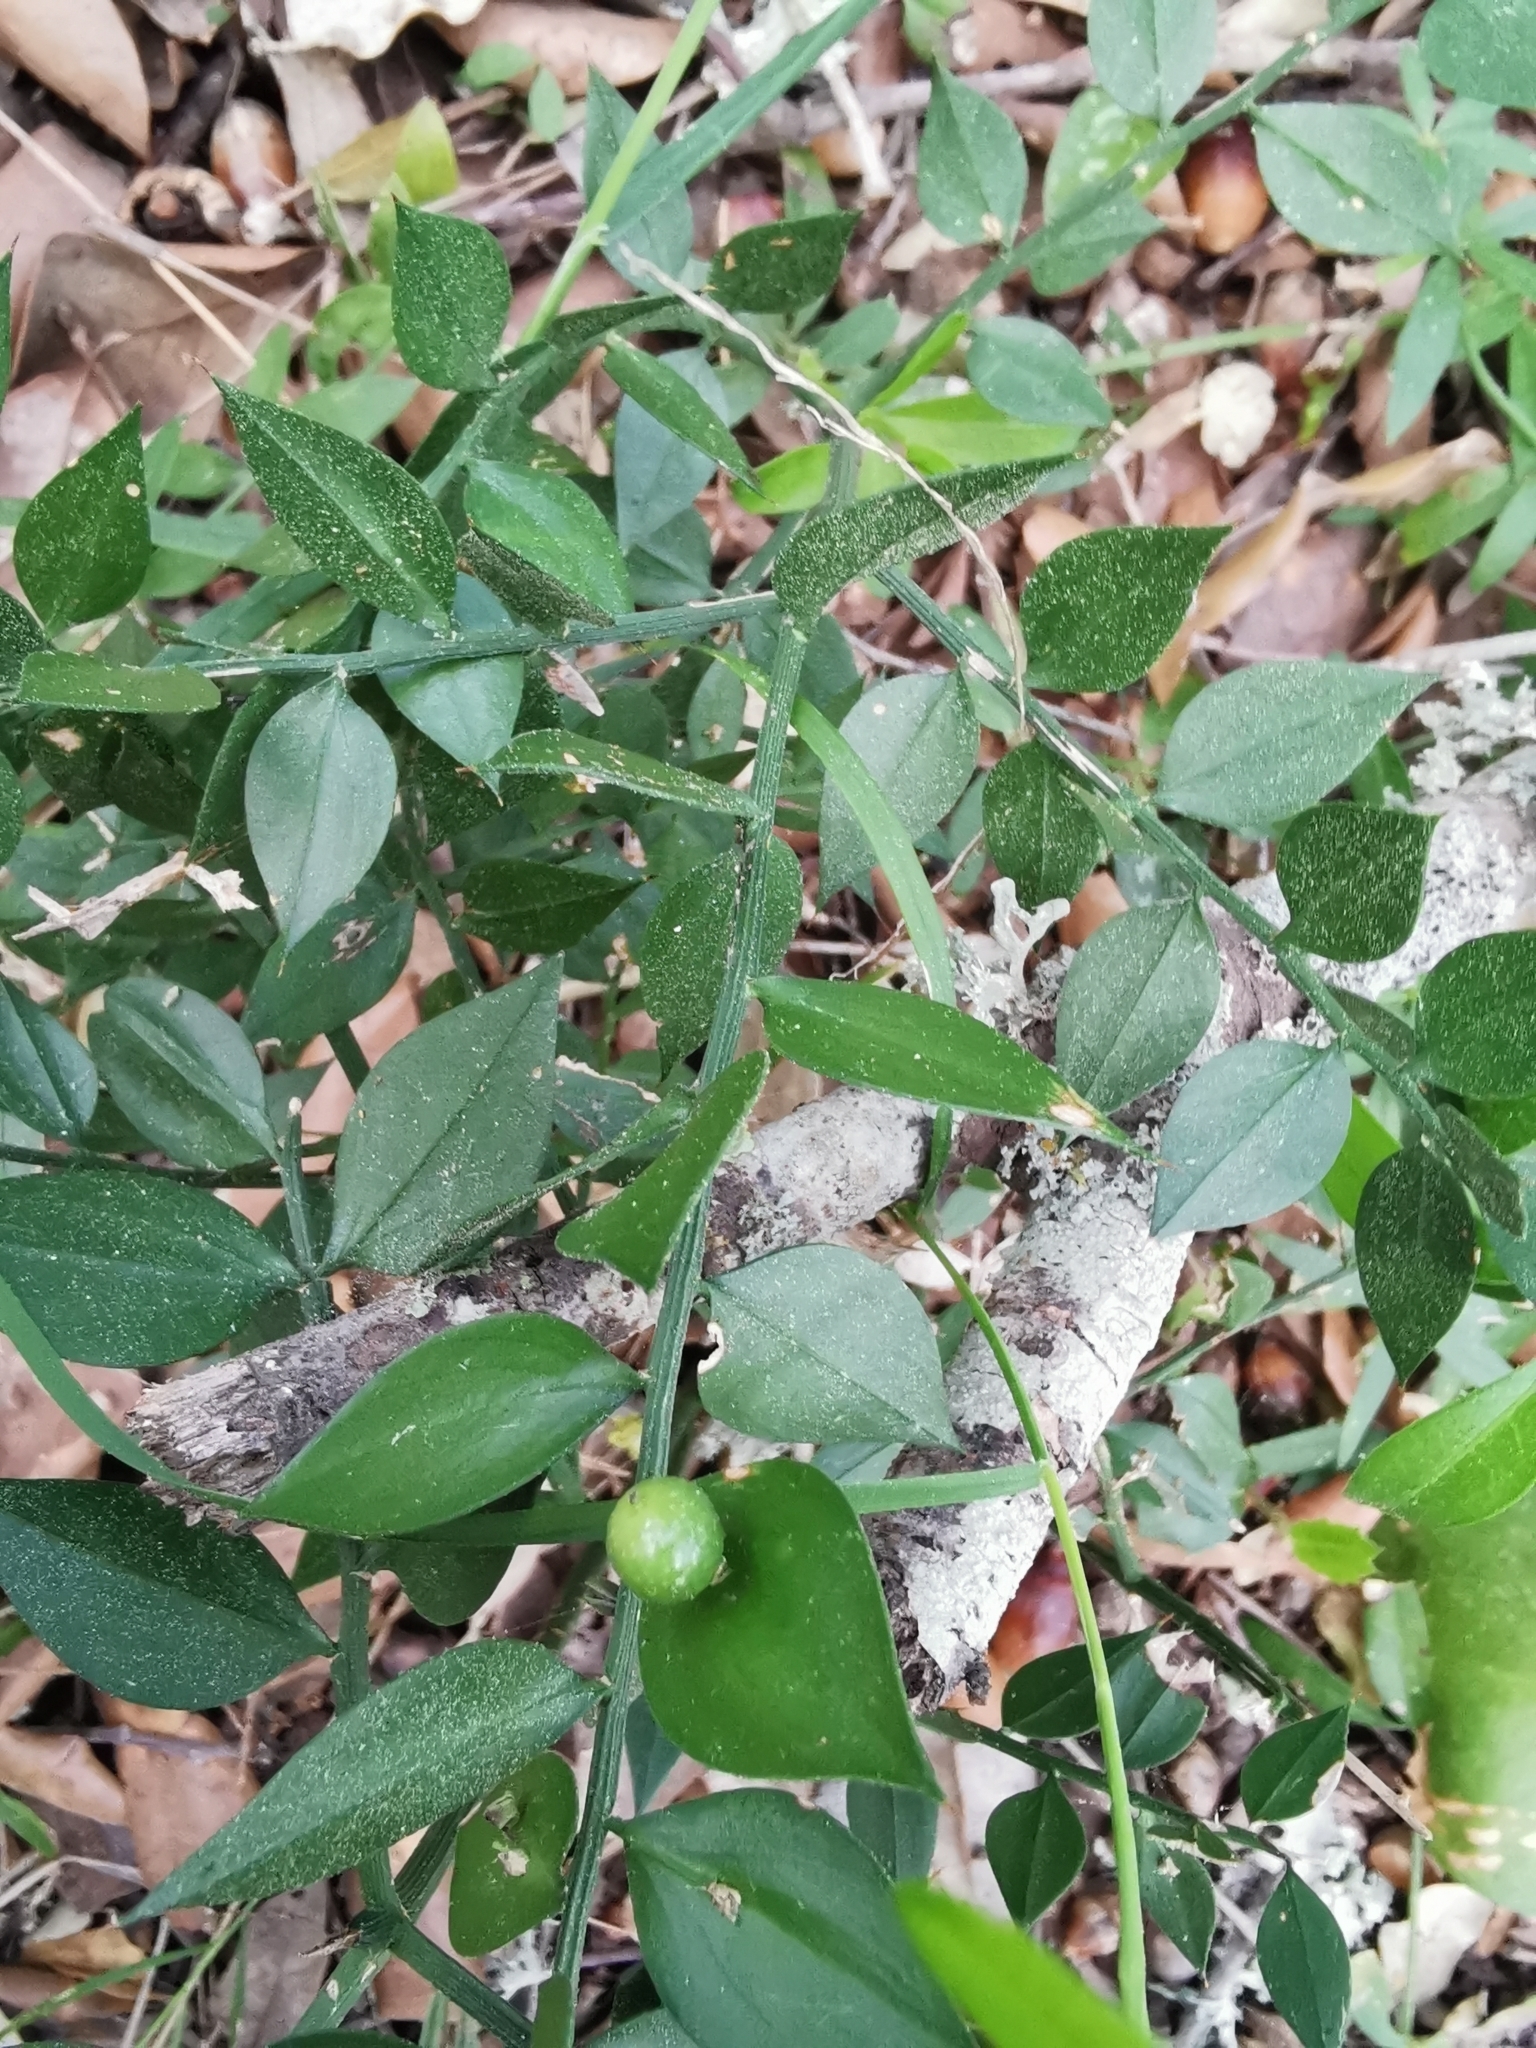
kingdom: Plantae
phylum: Tracheophyta
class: Liliopsida
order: Asparagales
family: Asparagaceae
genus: Ruscus
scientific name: Ruscus aculeatus
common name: Butcher's-broom
